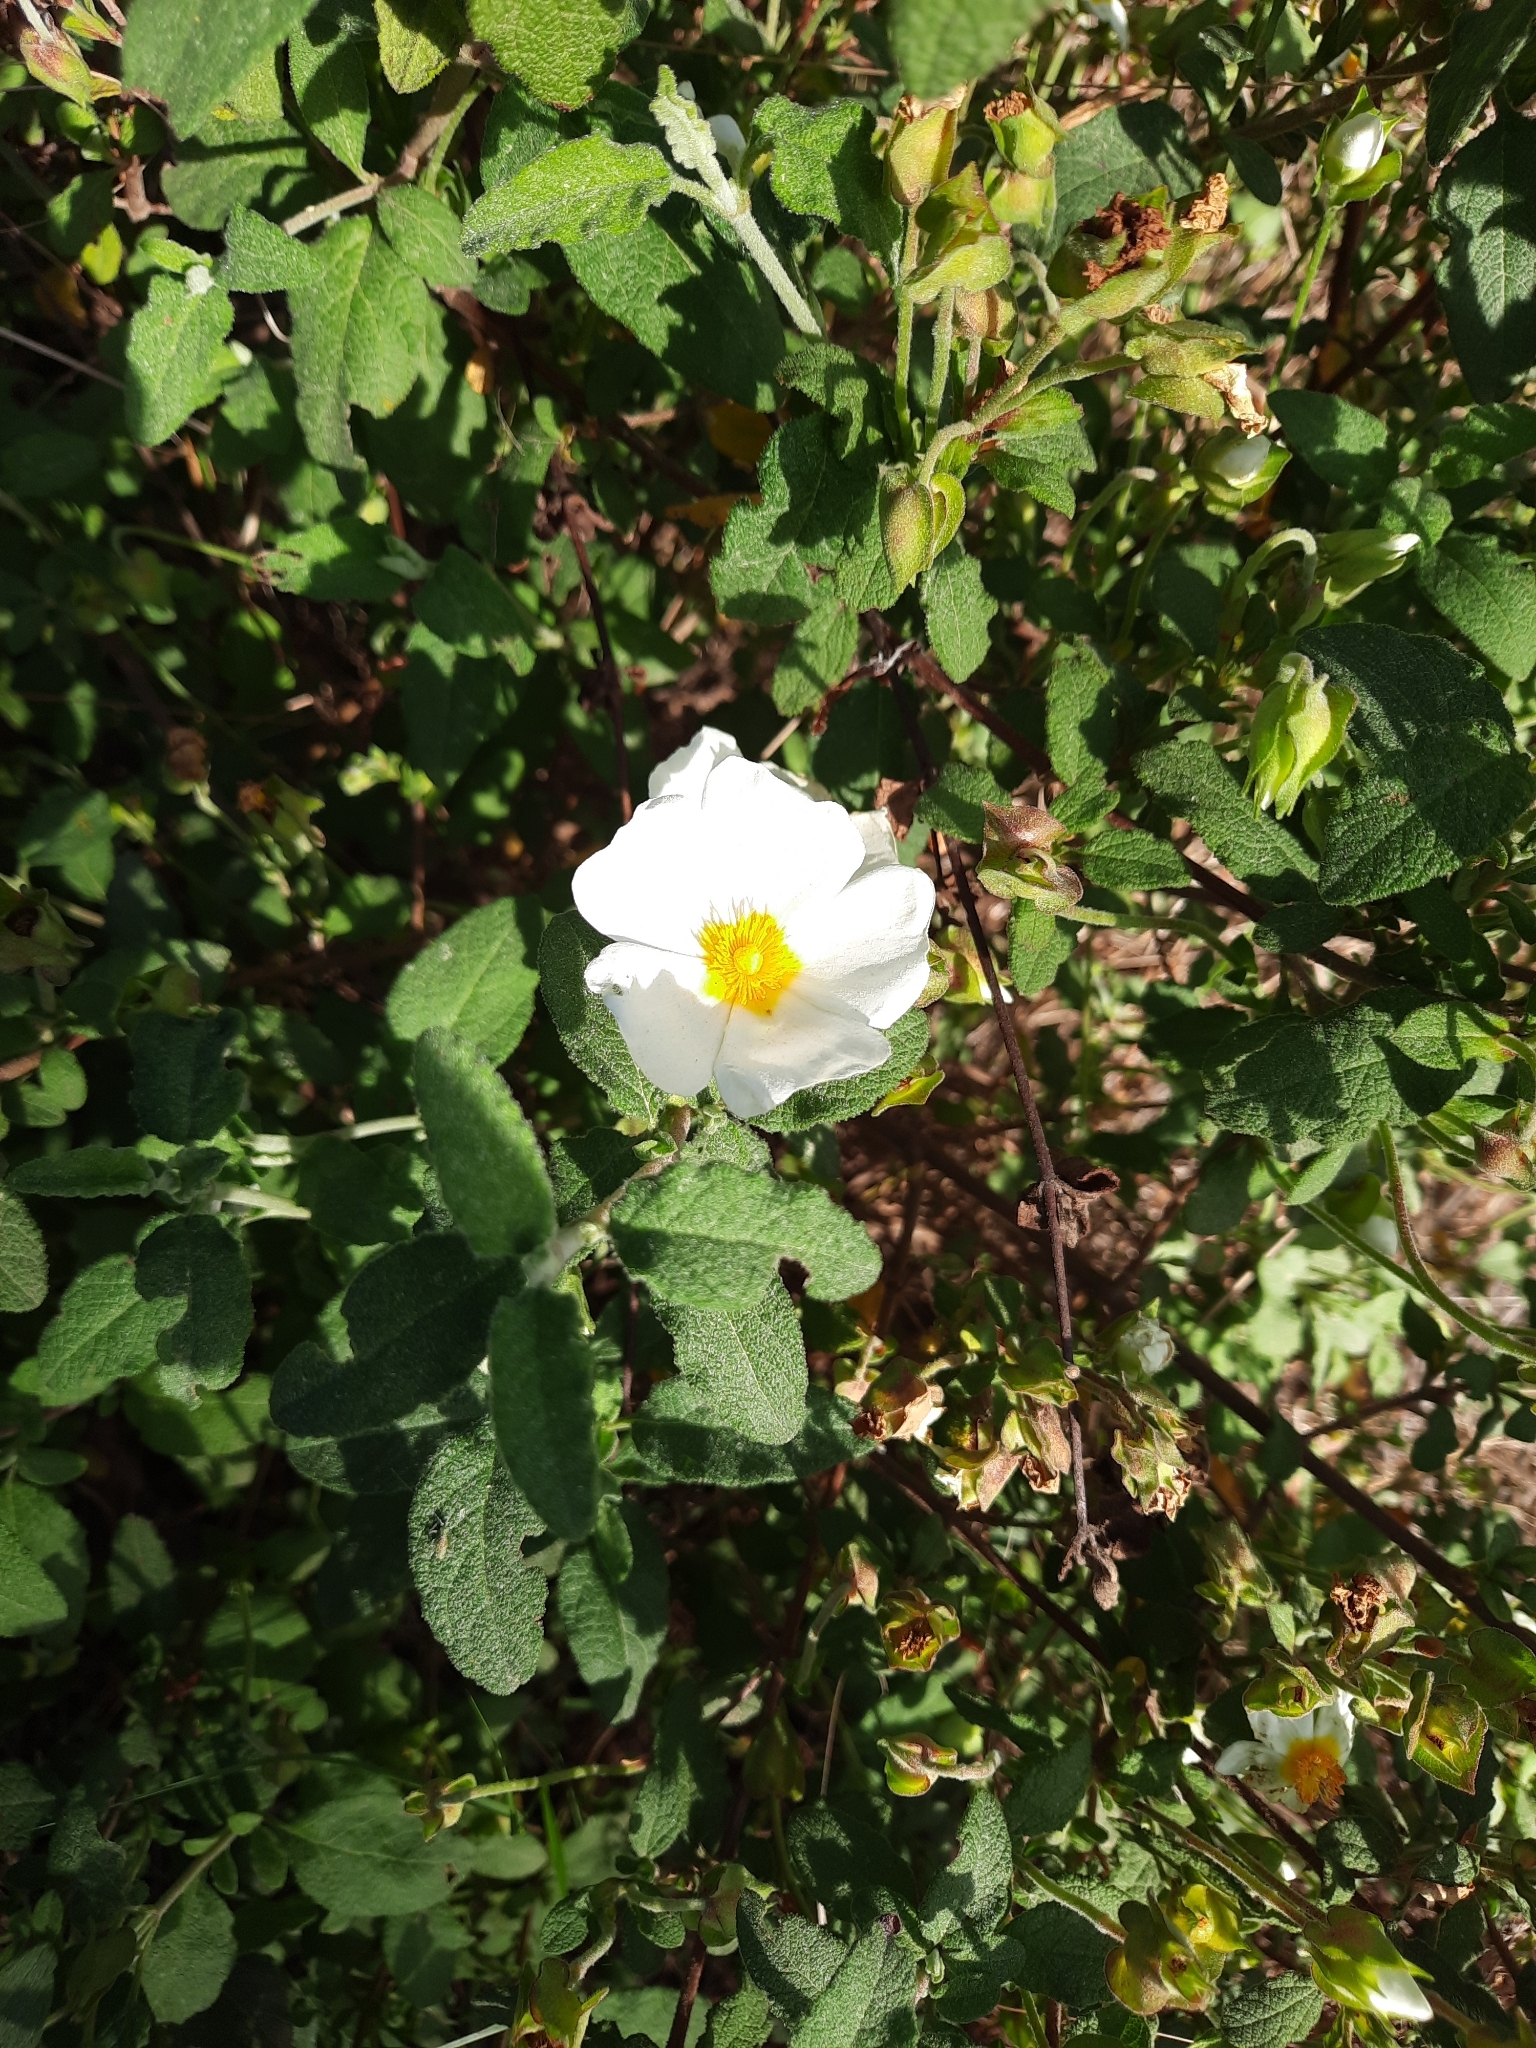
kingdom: Plantae
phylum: Tracheophyta
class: Magnoliopsida
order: Malvales
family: Cistaceae
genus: Cistus
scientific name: Cistus salviifolius
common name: Salvia cistus
